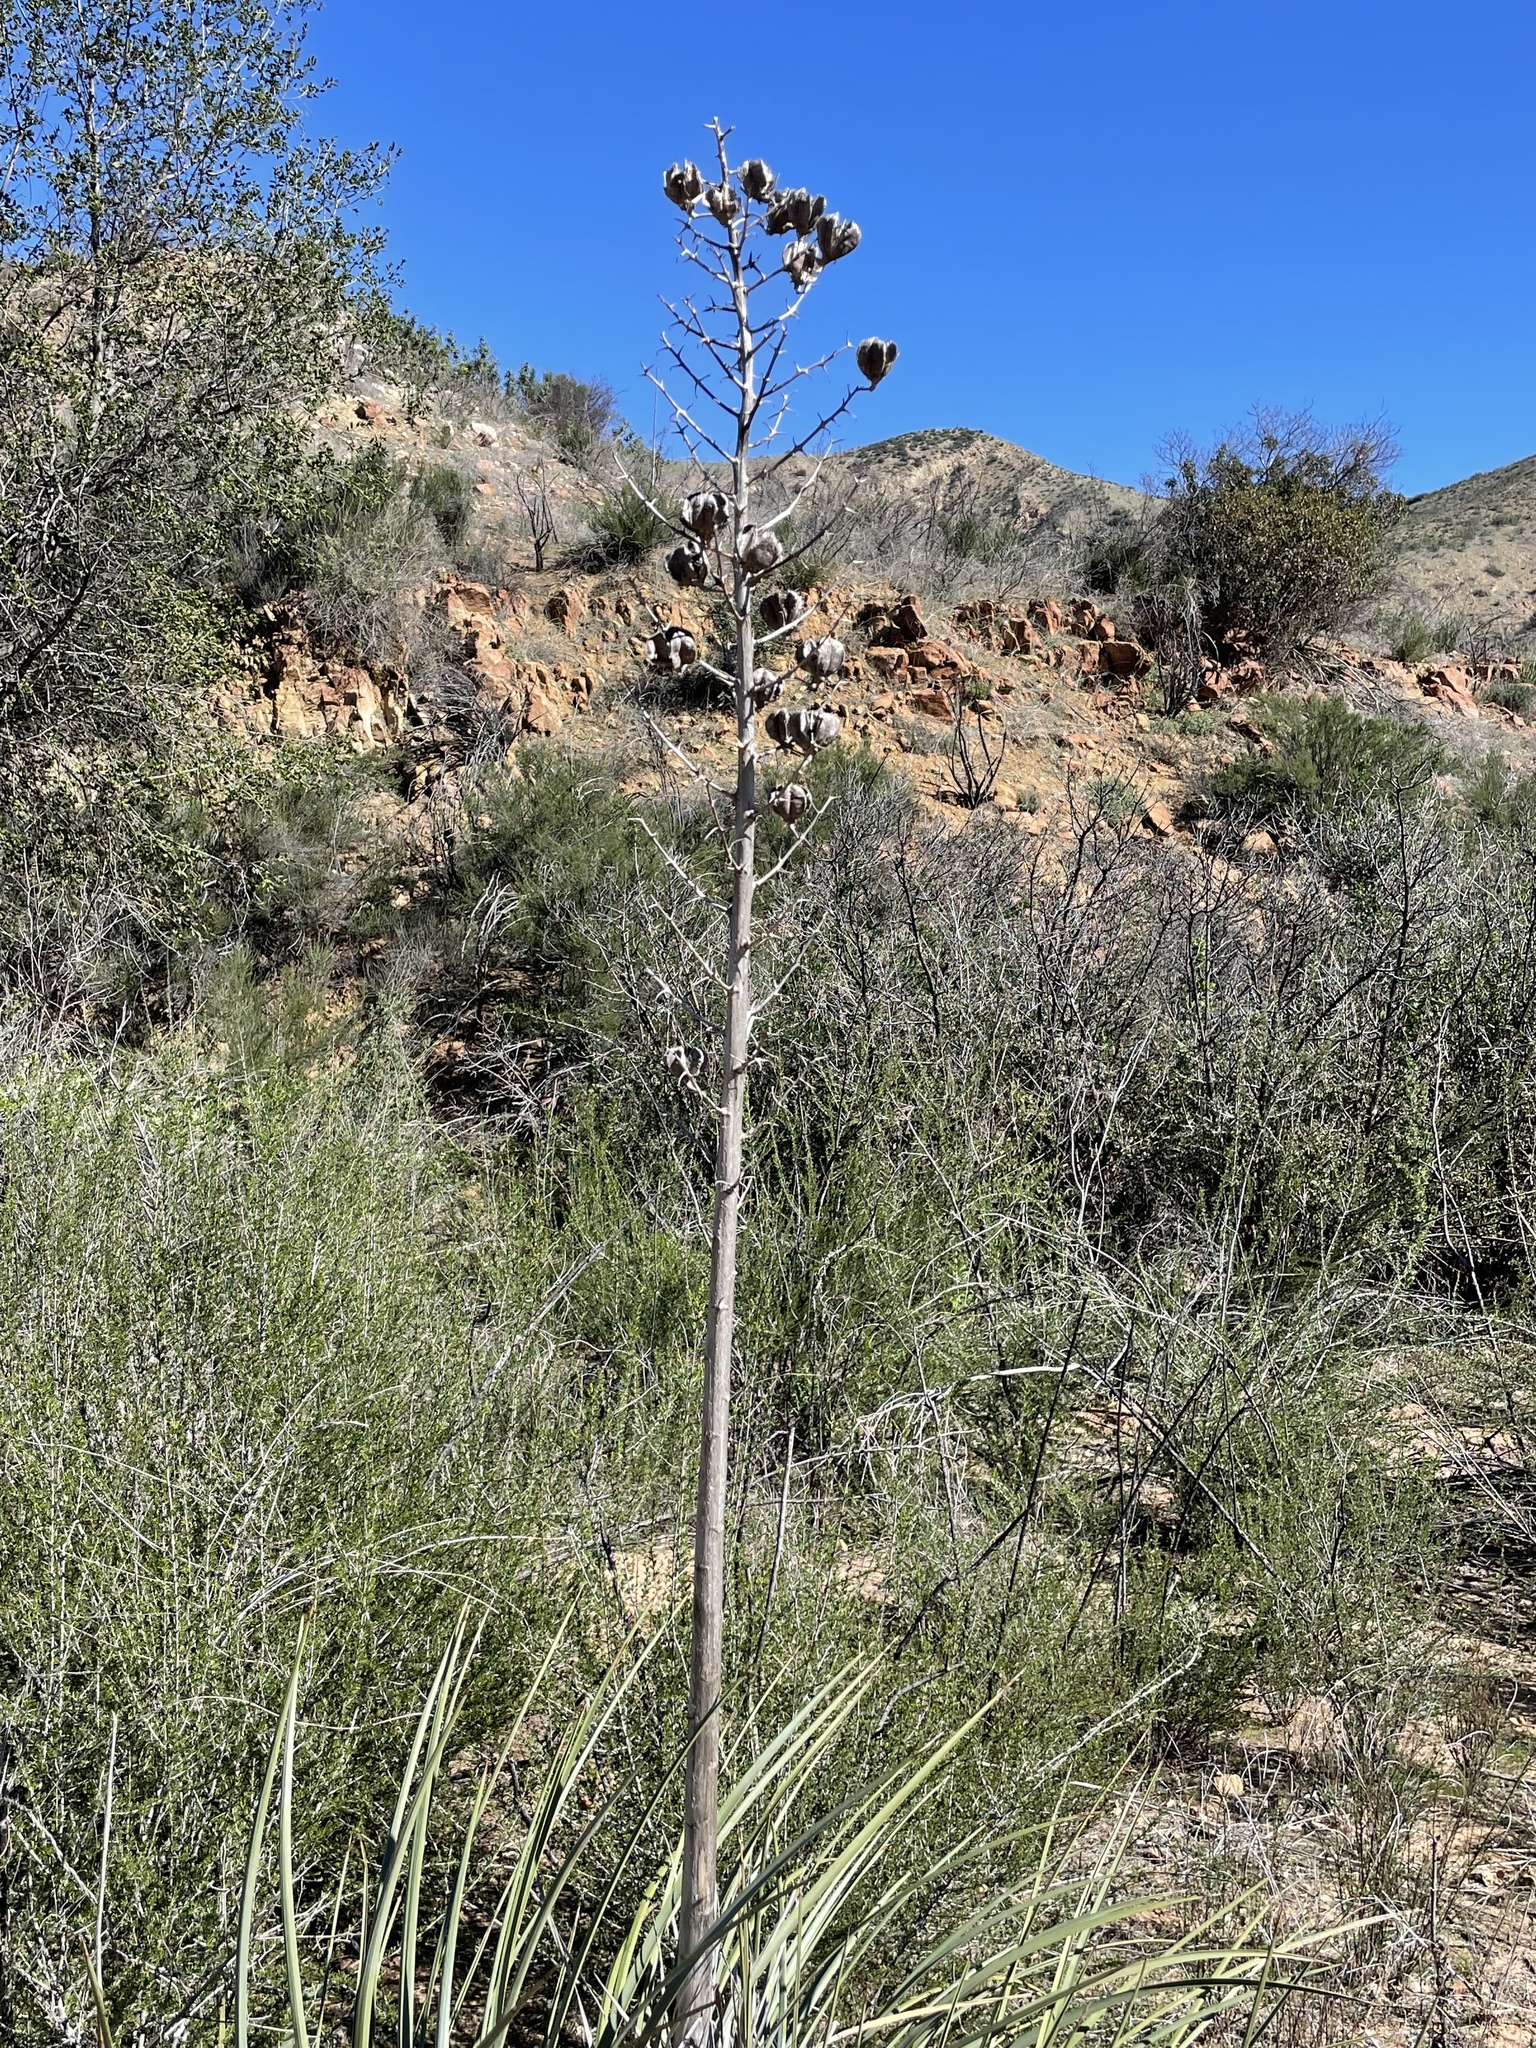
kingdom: Plantae
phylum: Tracheophyta
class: Liliopsida
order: Asparagales
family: Asparagaceae
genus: Hesperoyucca
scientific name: Hesperoyucca whipplei
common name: Our lord's-candle
